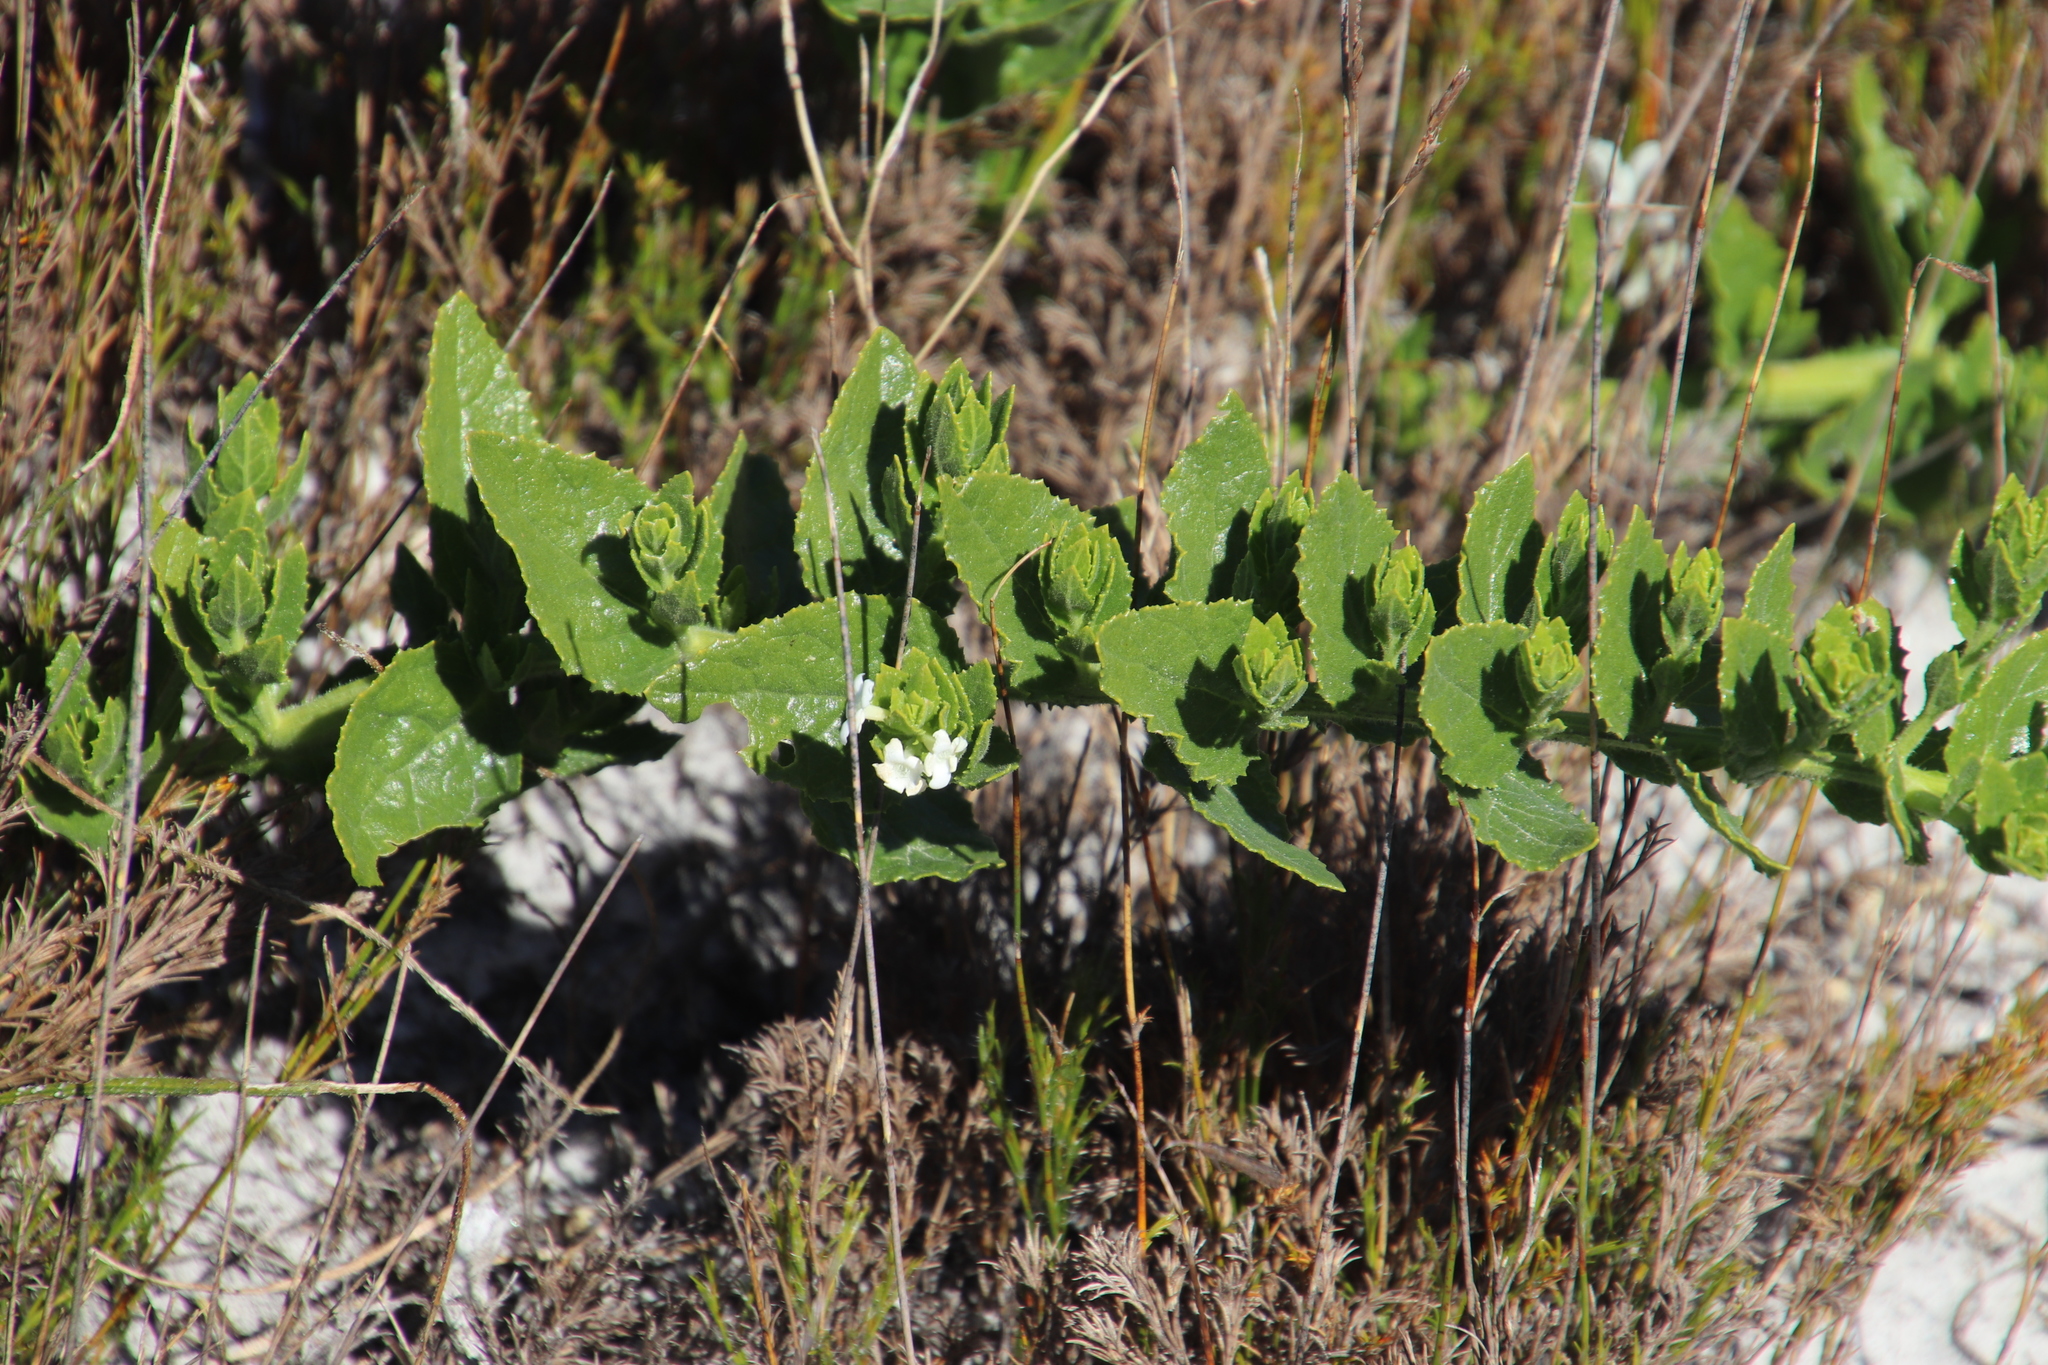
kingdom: Plantae
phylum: Tracheophyta
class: Magnoliopsida
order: Lamiales
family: Scrophulariaceae
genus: Oftia
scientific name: Oftia africana
